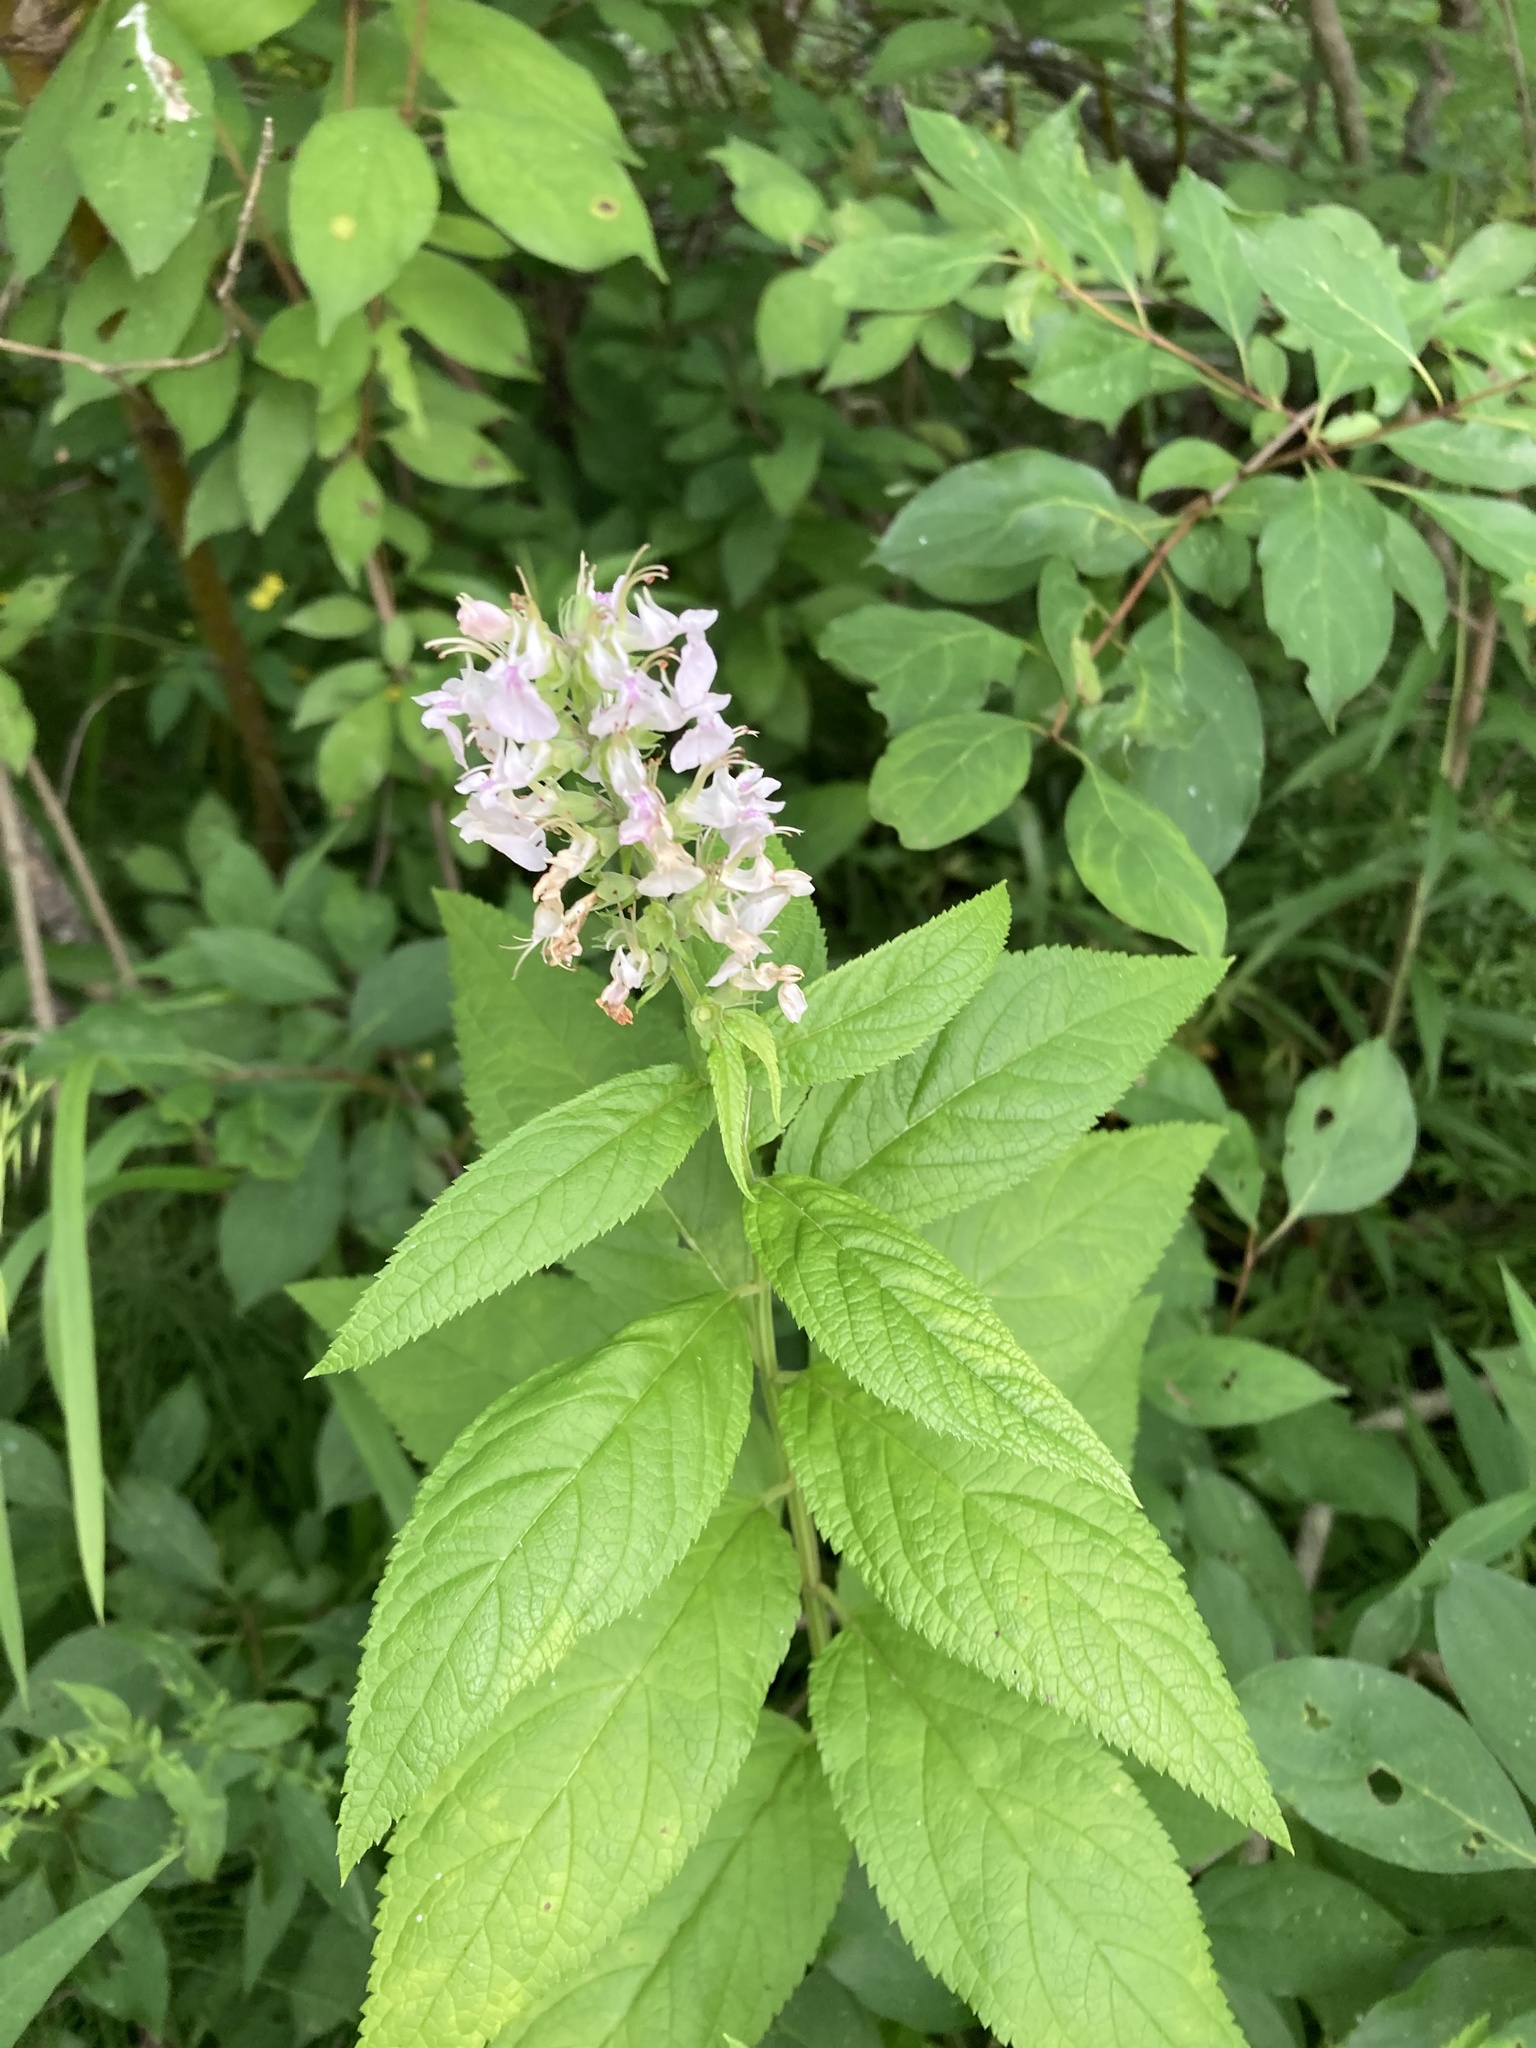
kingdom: Plantae
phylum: Tracheophyta
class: Magnoliopsida
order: Lamiales
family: Lamiaceae
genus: Teucrium
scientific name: Teucrium canadense
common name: American germander
